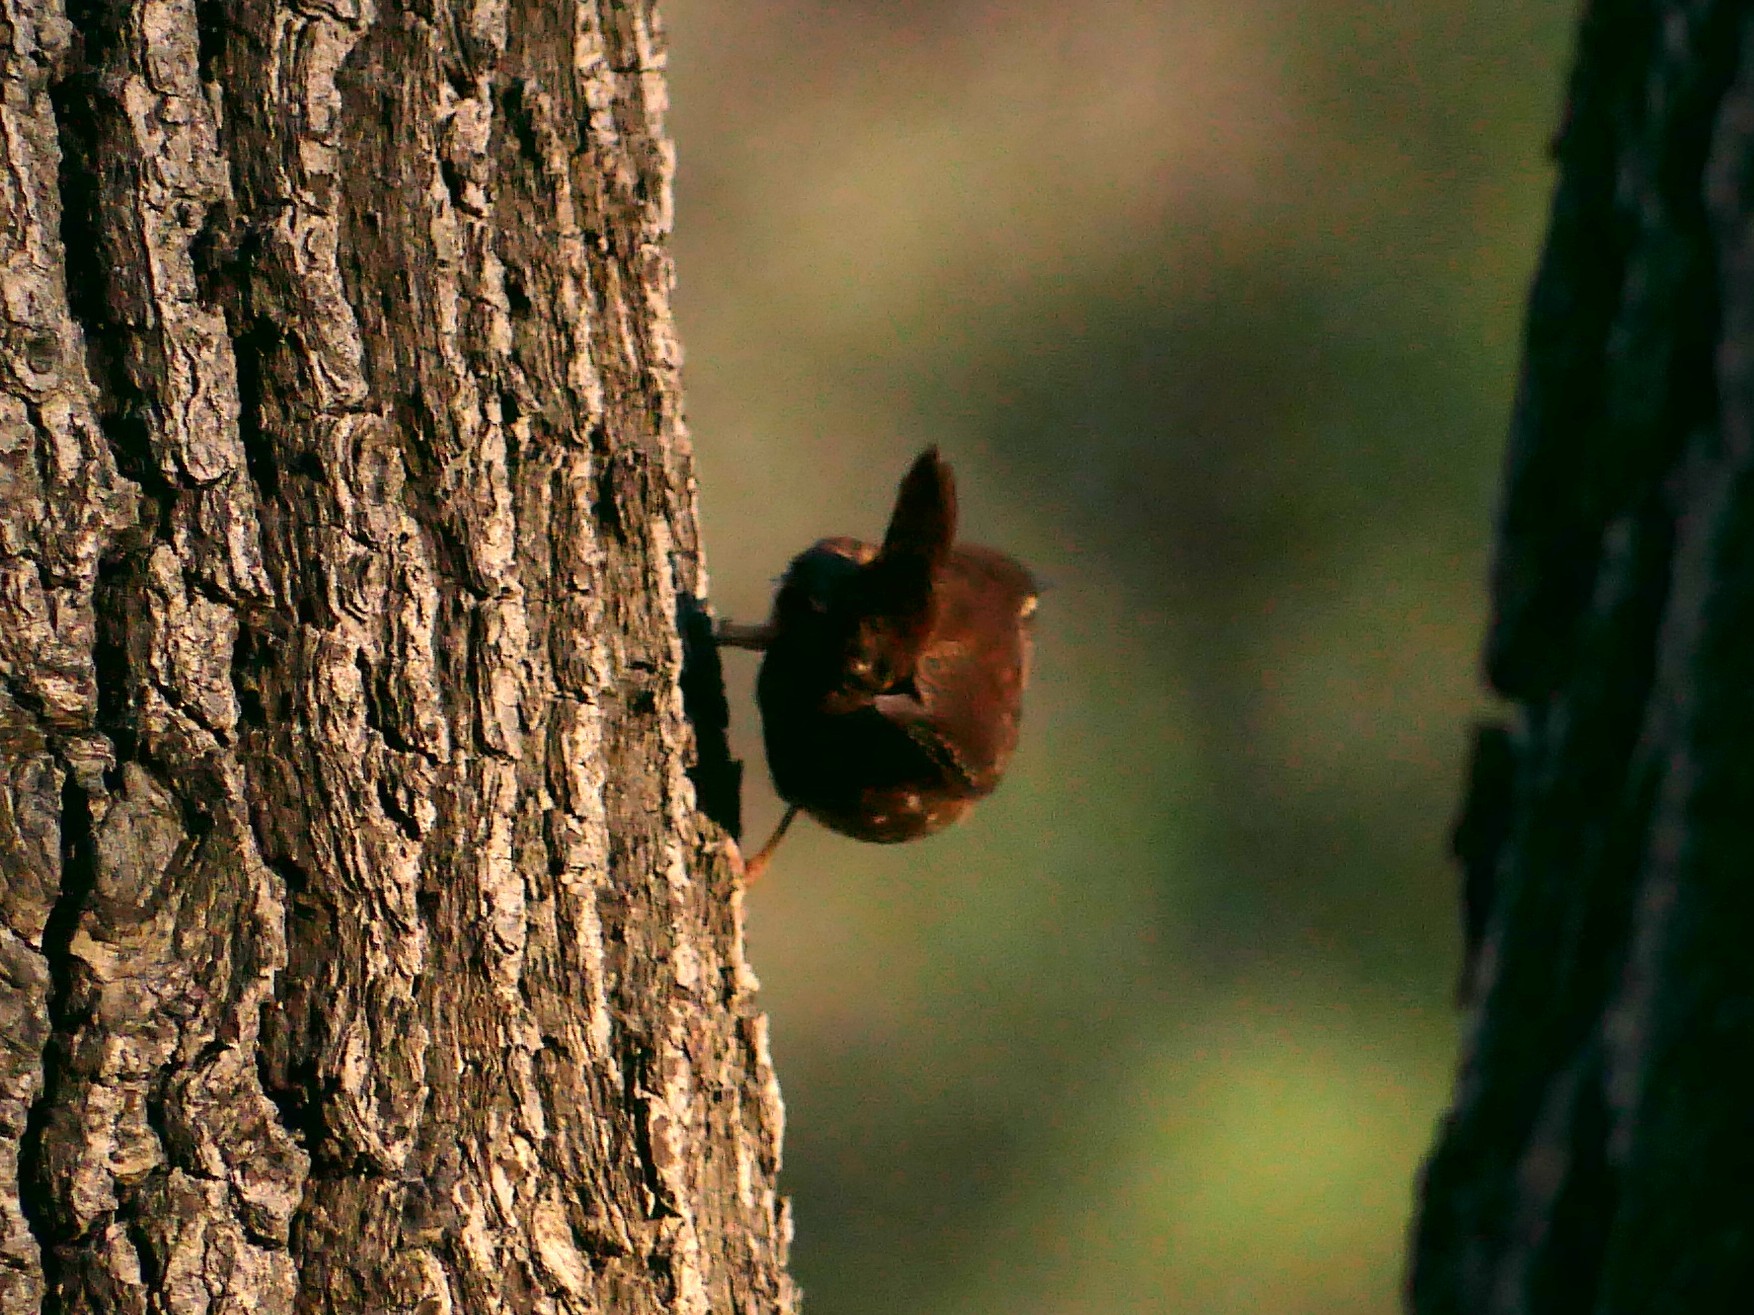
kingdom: Animalia
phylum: Chordata
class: Aves
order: Passeriformes
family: Troglodytidae
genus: Troglodytes
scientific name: Troglodytes troglodytes
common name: Eurasian wren
